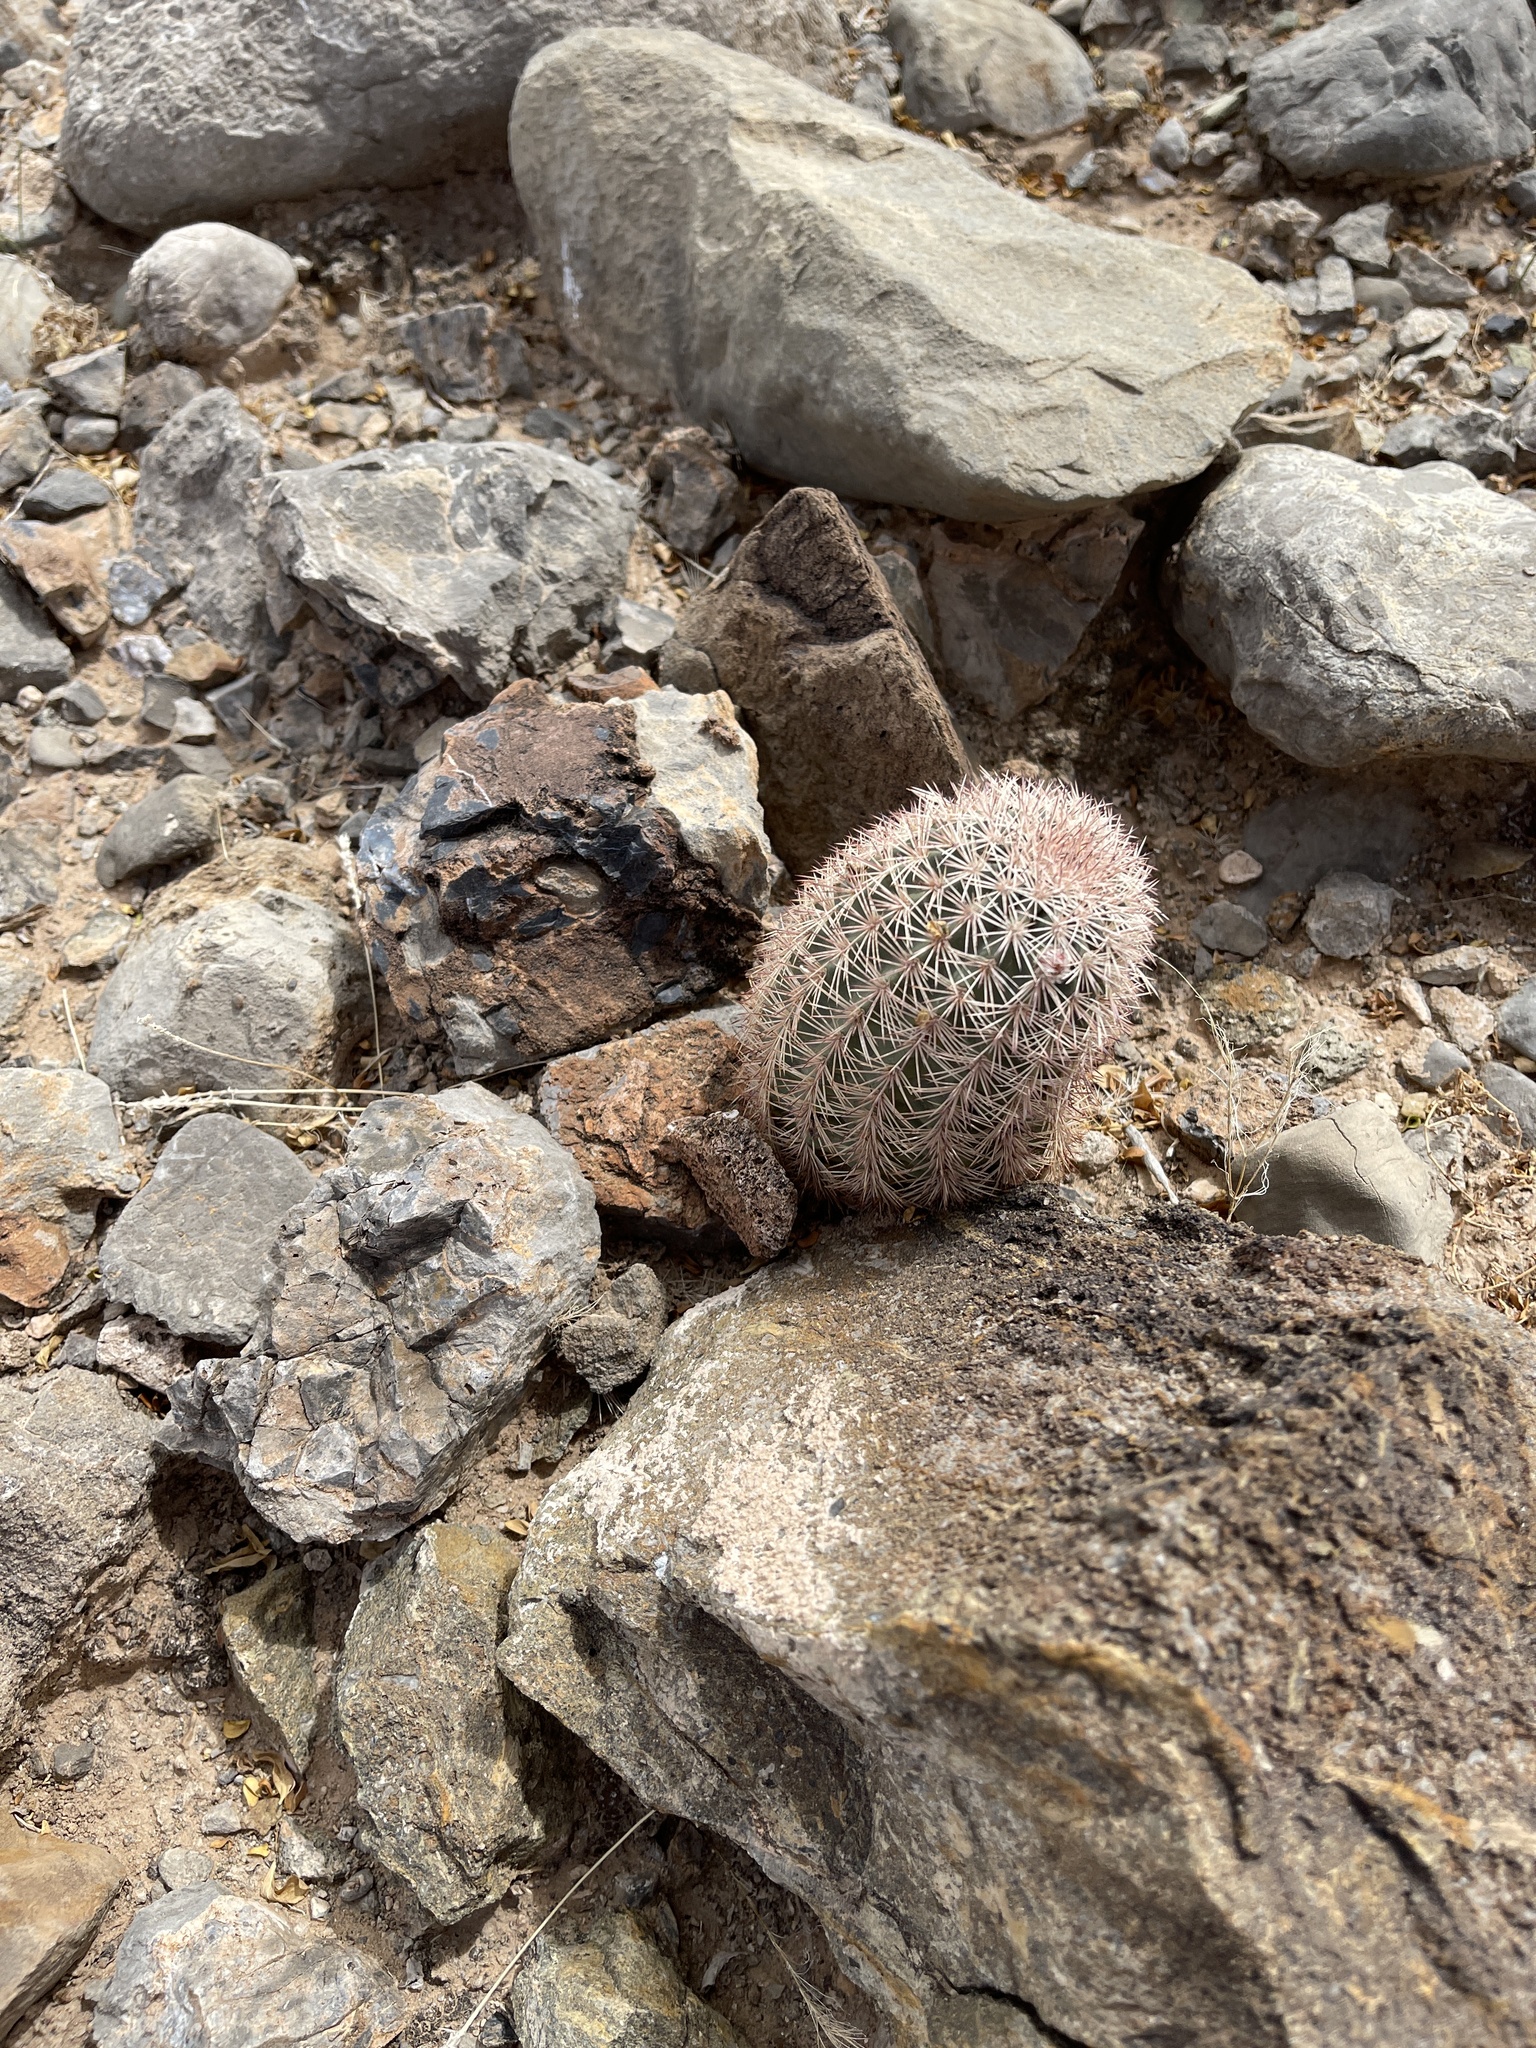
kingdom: Plantae
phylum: Tracheophyta
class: Magnoliopsida
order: Caryophyllales
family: Cactaceae
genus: Echinocereus
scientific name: Echinocereus dasyacanthus
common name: Spiny hedgehog cactus
